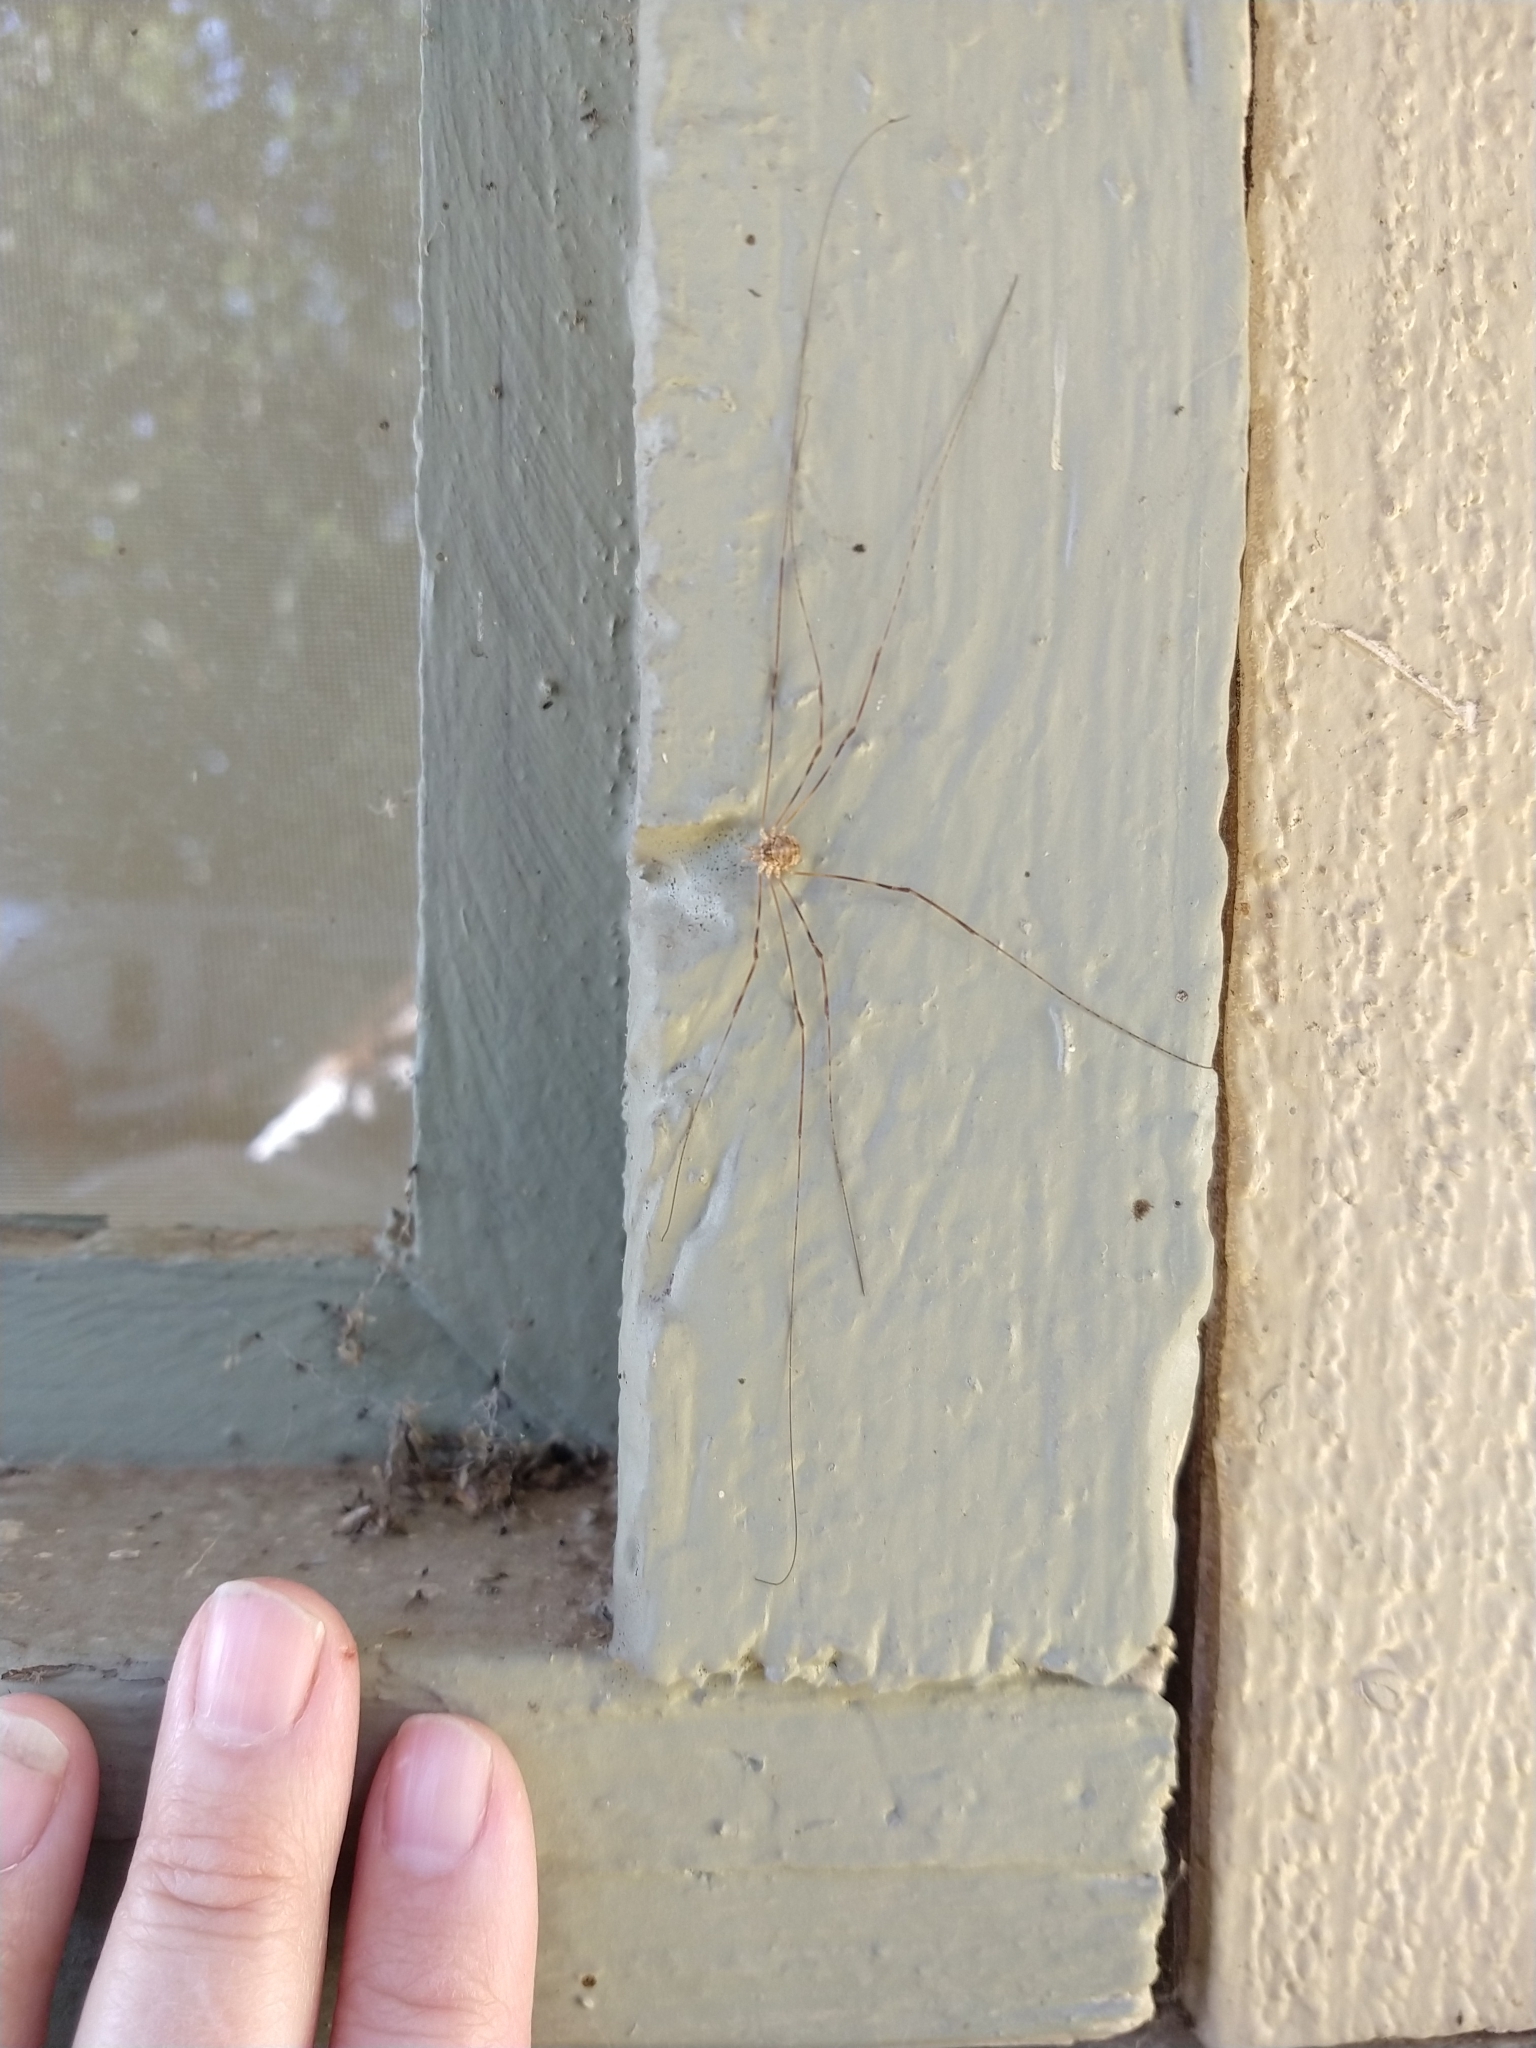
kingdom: Animalia
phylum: Arthropoda
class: Arachnida
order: Opiliones
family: Phalangiidae
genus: Leptobunus
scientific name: Leptobunus parvulus
